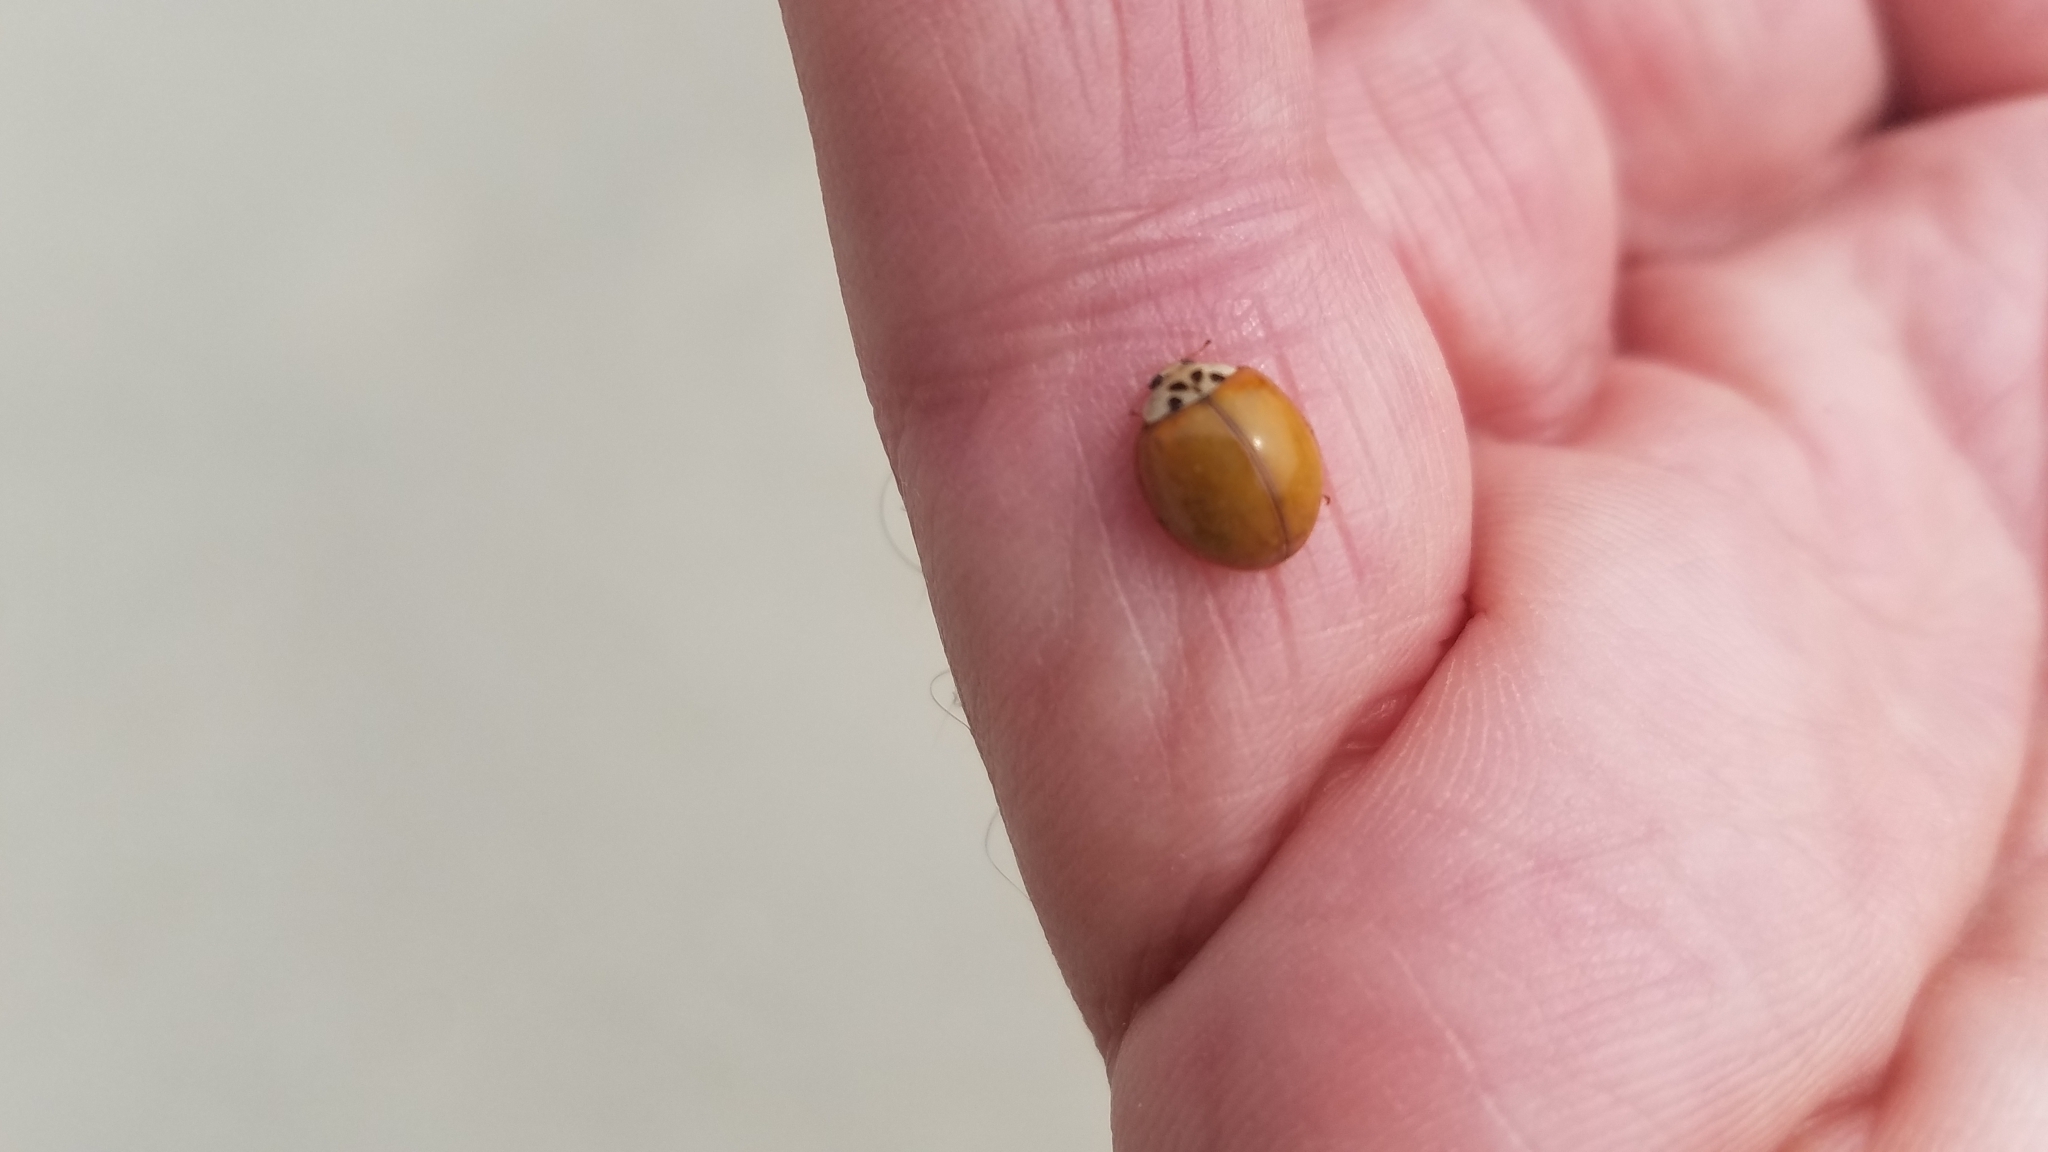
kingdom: Animalia
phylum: Arthropoda
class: Insecta
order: Coleoptera
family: Coccinellidae
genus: Harmonia
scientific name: Harmonia axyridis
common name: Harlequin ladybird
